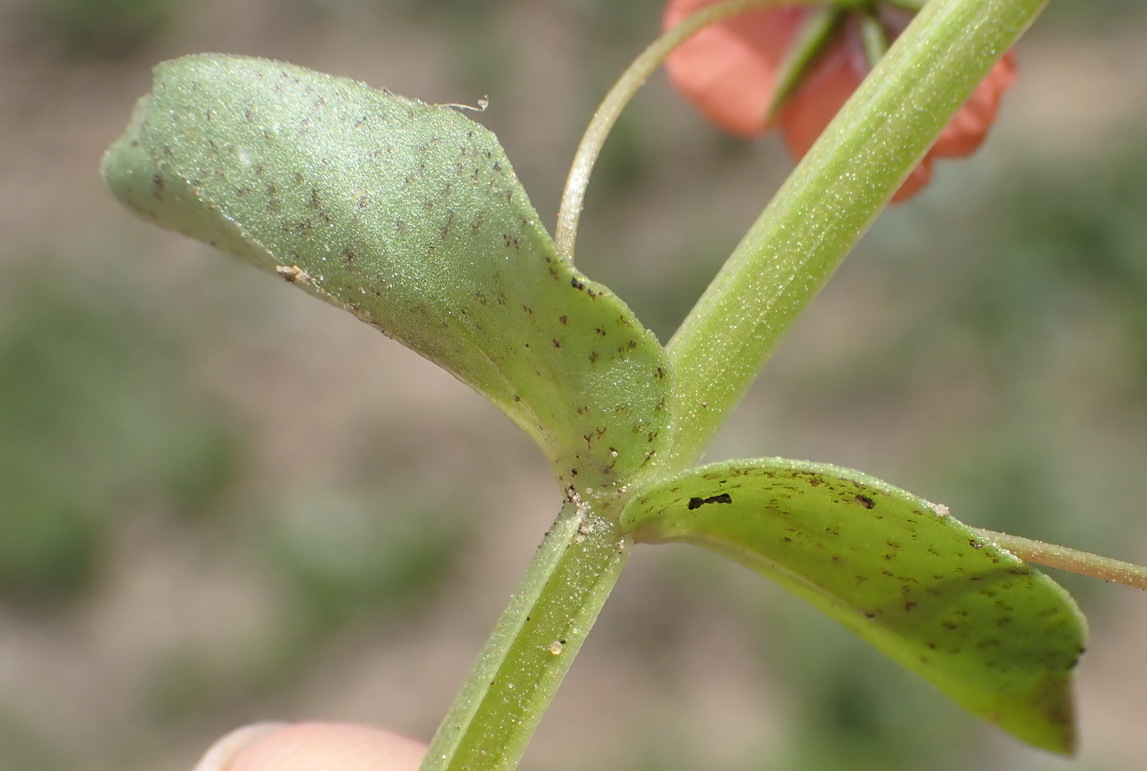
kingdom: Plantae
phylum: Tracheophyta
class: Magnoliopsida
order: Ericales
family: Primulaceae
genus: Lysimachia
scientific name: Lysimachia arvensis
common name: Scarlet pimpernel
